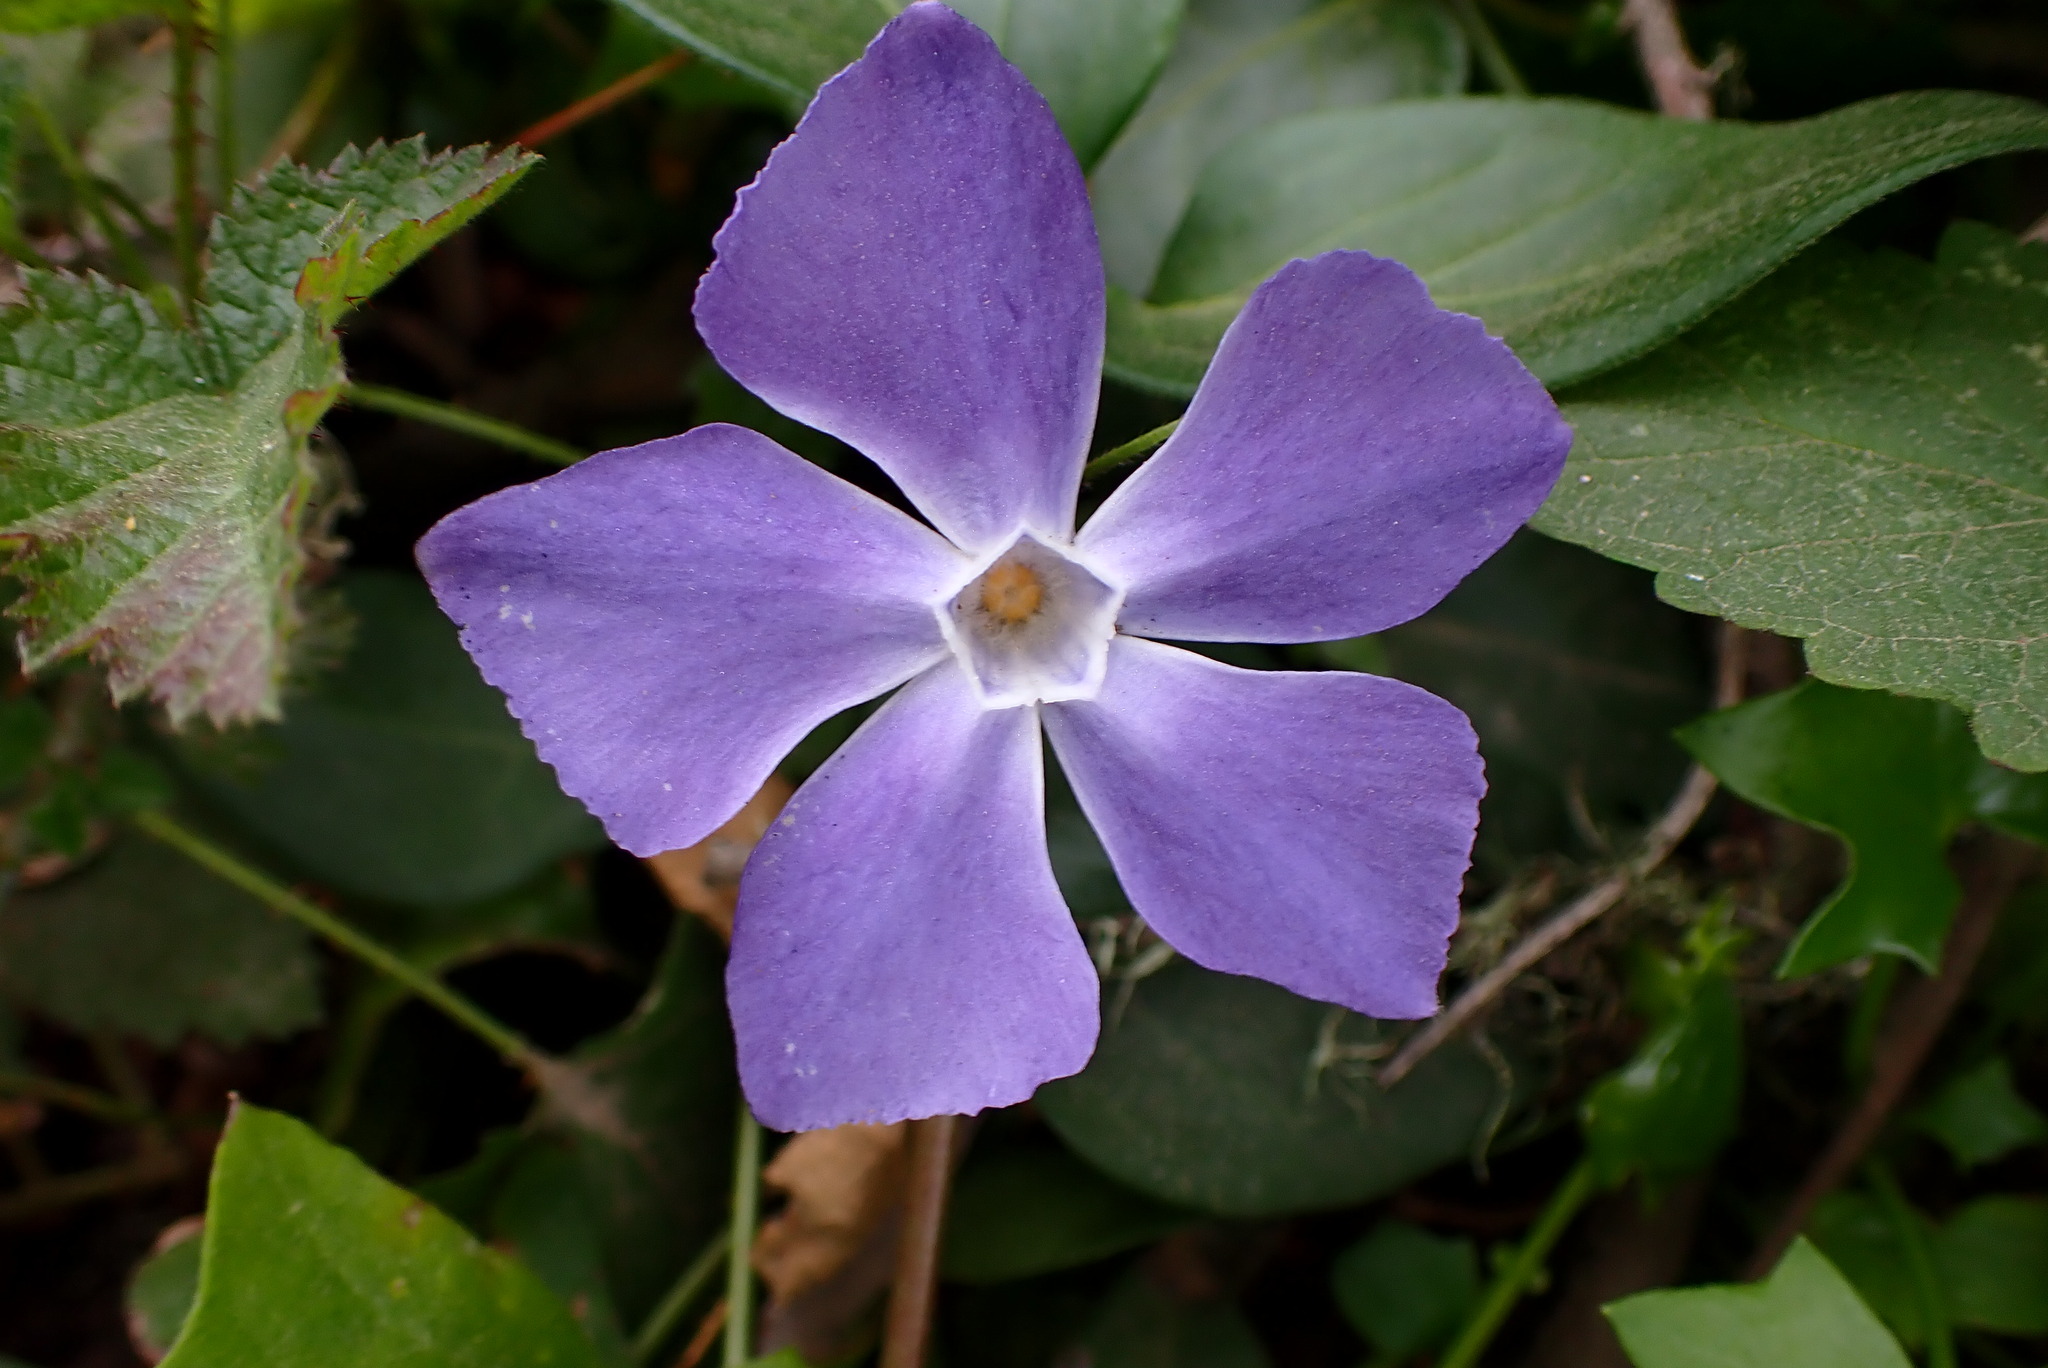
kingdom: Plantae
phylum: Tracheophyta
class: Magnoliopsida
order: Gentianales
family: Apocynaceae
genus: Vinca
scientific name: Vinca major
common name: Greater periwinkle
